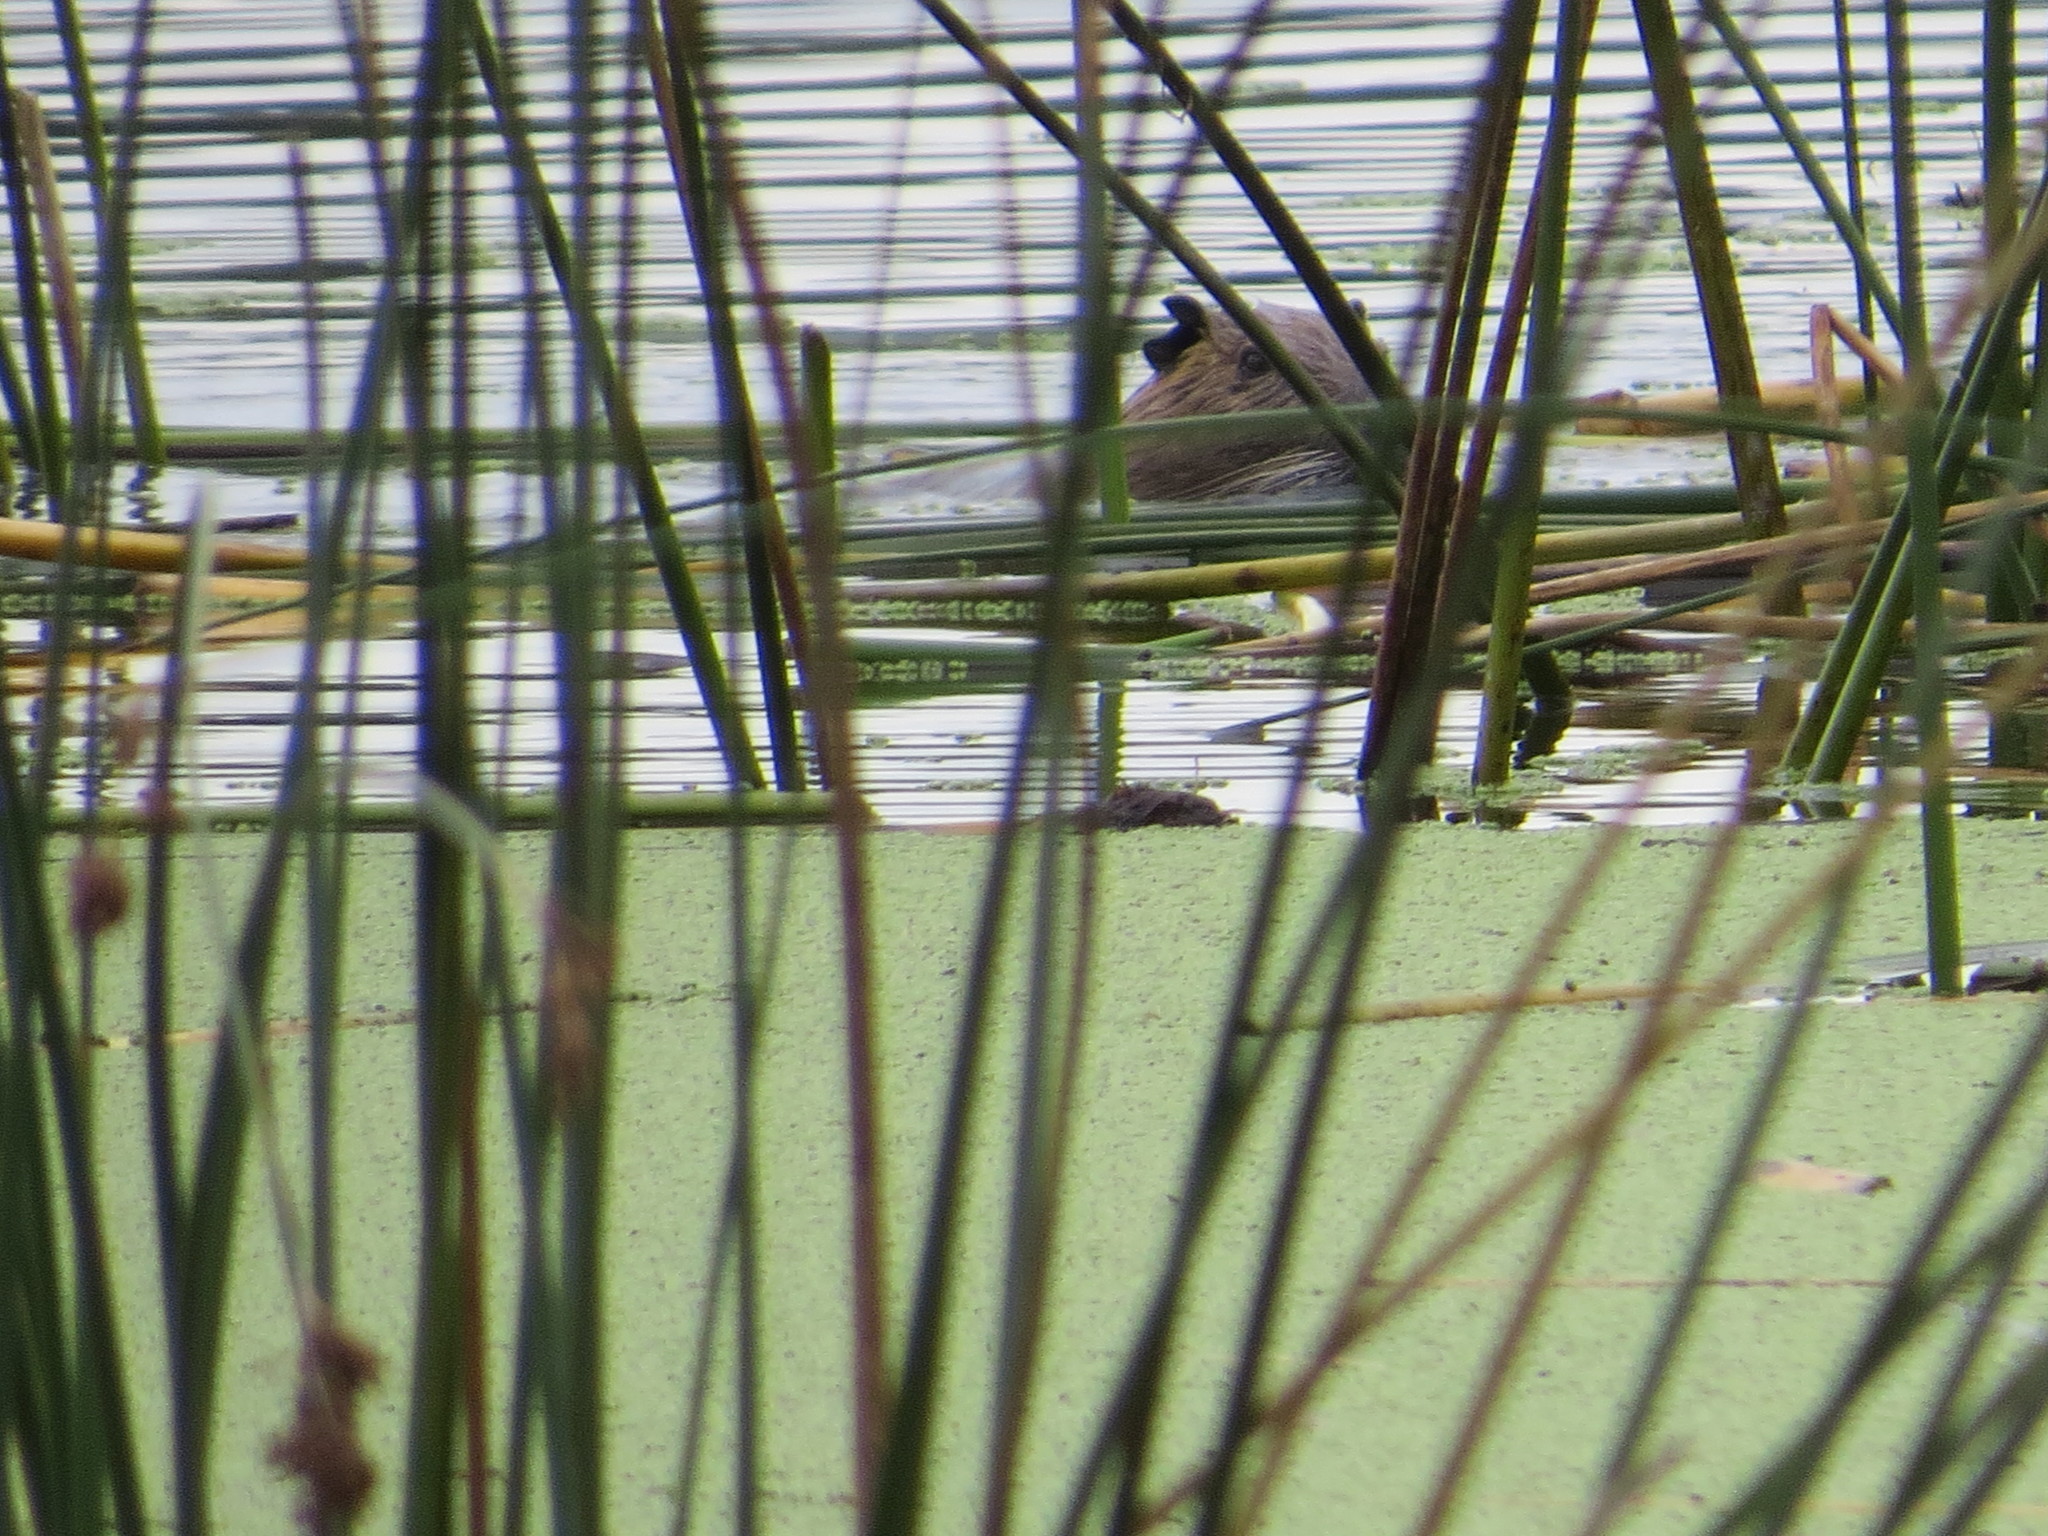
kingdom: Animalia
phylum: Chordata
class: Mammalia
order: Rodentia
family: Myocastoridae
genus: Myocastor
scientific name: Myocastor coypus
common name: Coypu
